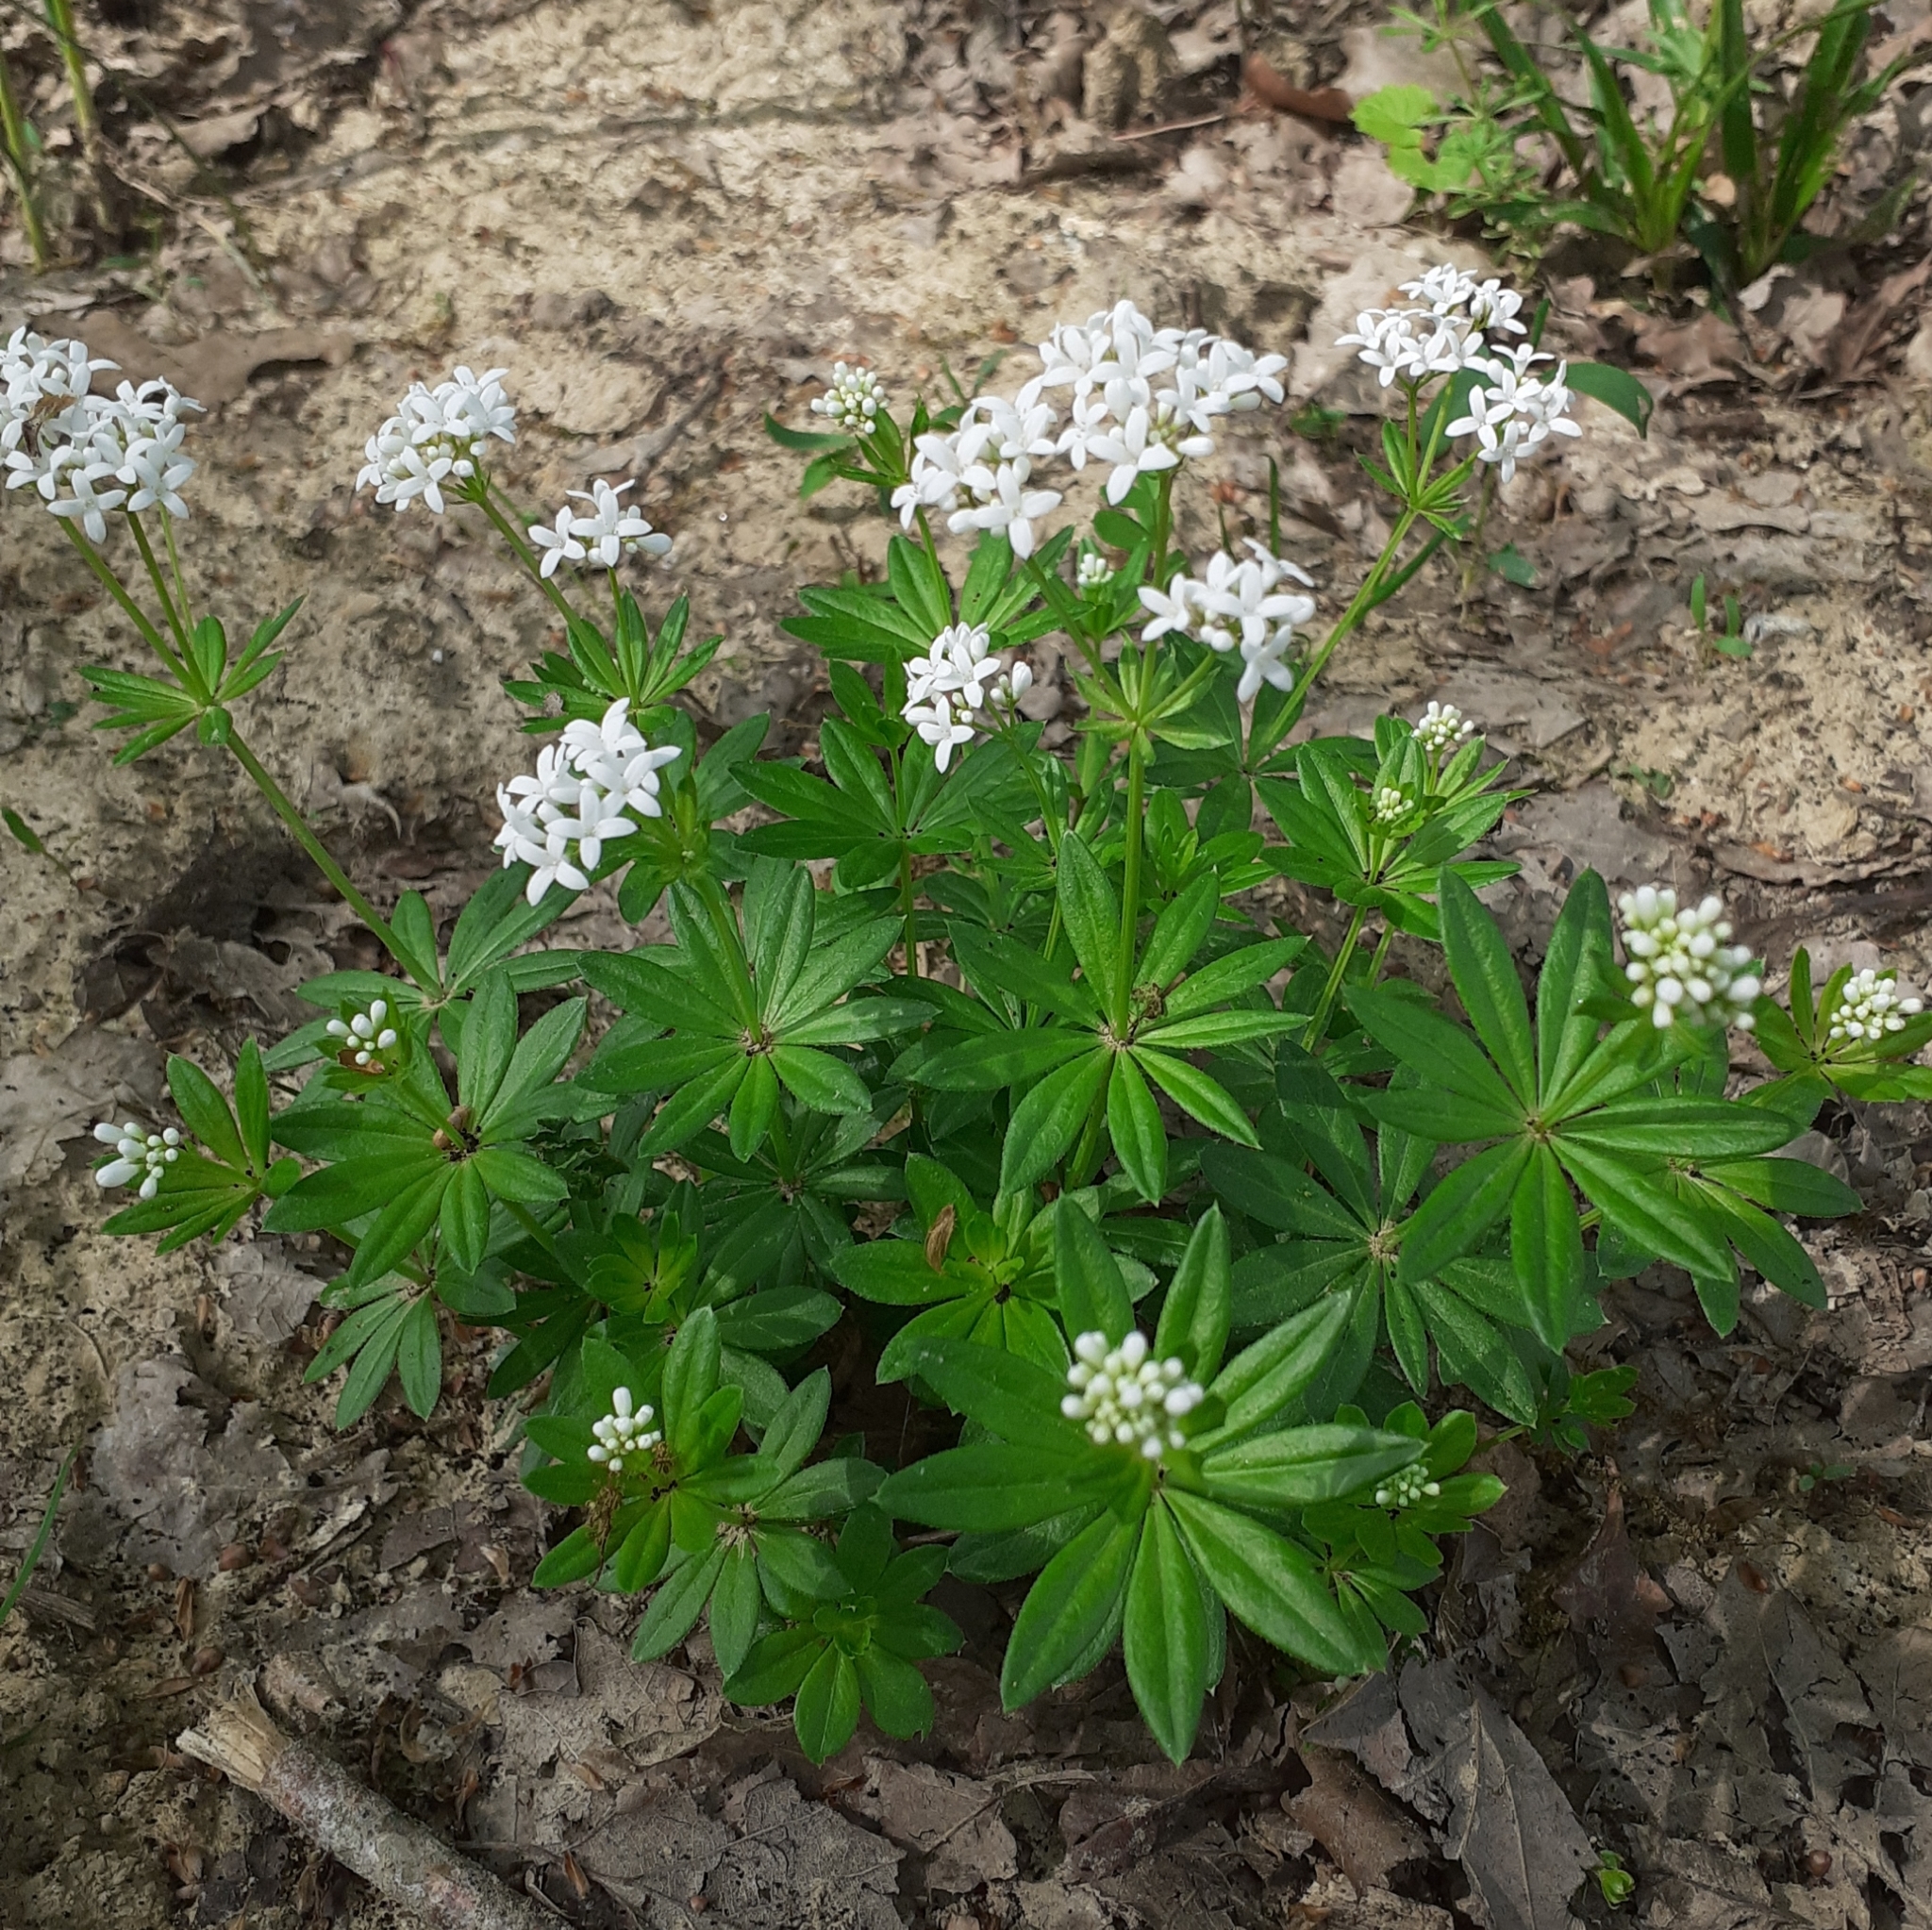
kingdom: Plantae
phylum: Tracheophyta
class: Magnoliopsida
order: Gentianales
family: Rubiaceae
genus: Galium
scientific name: Galium odoratum
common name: Sweet woodruff
